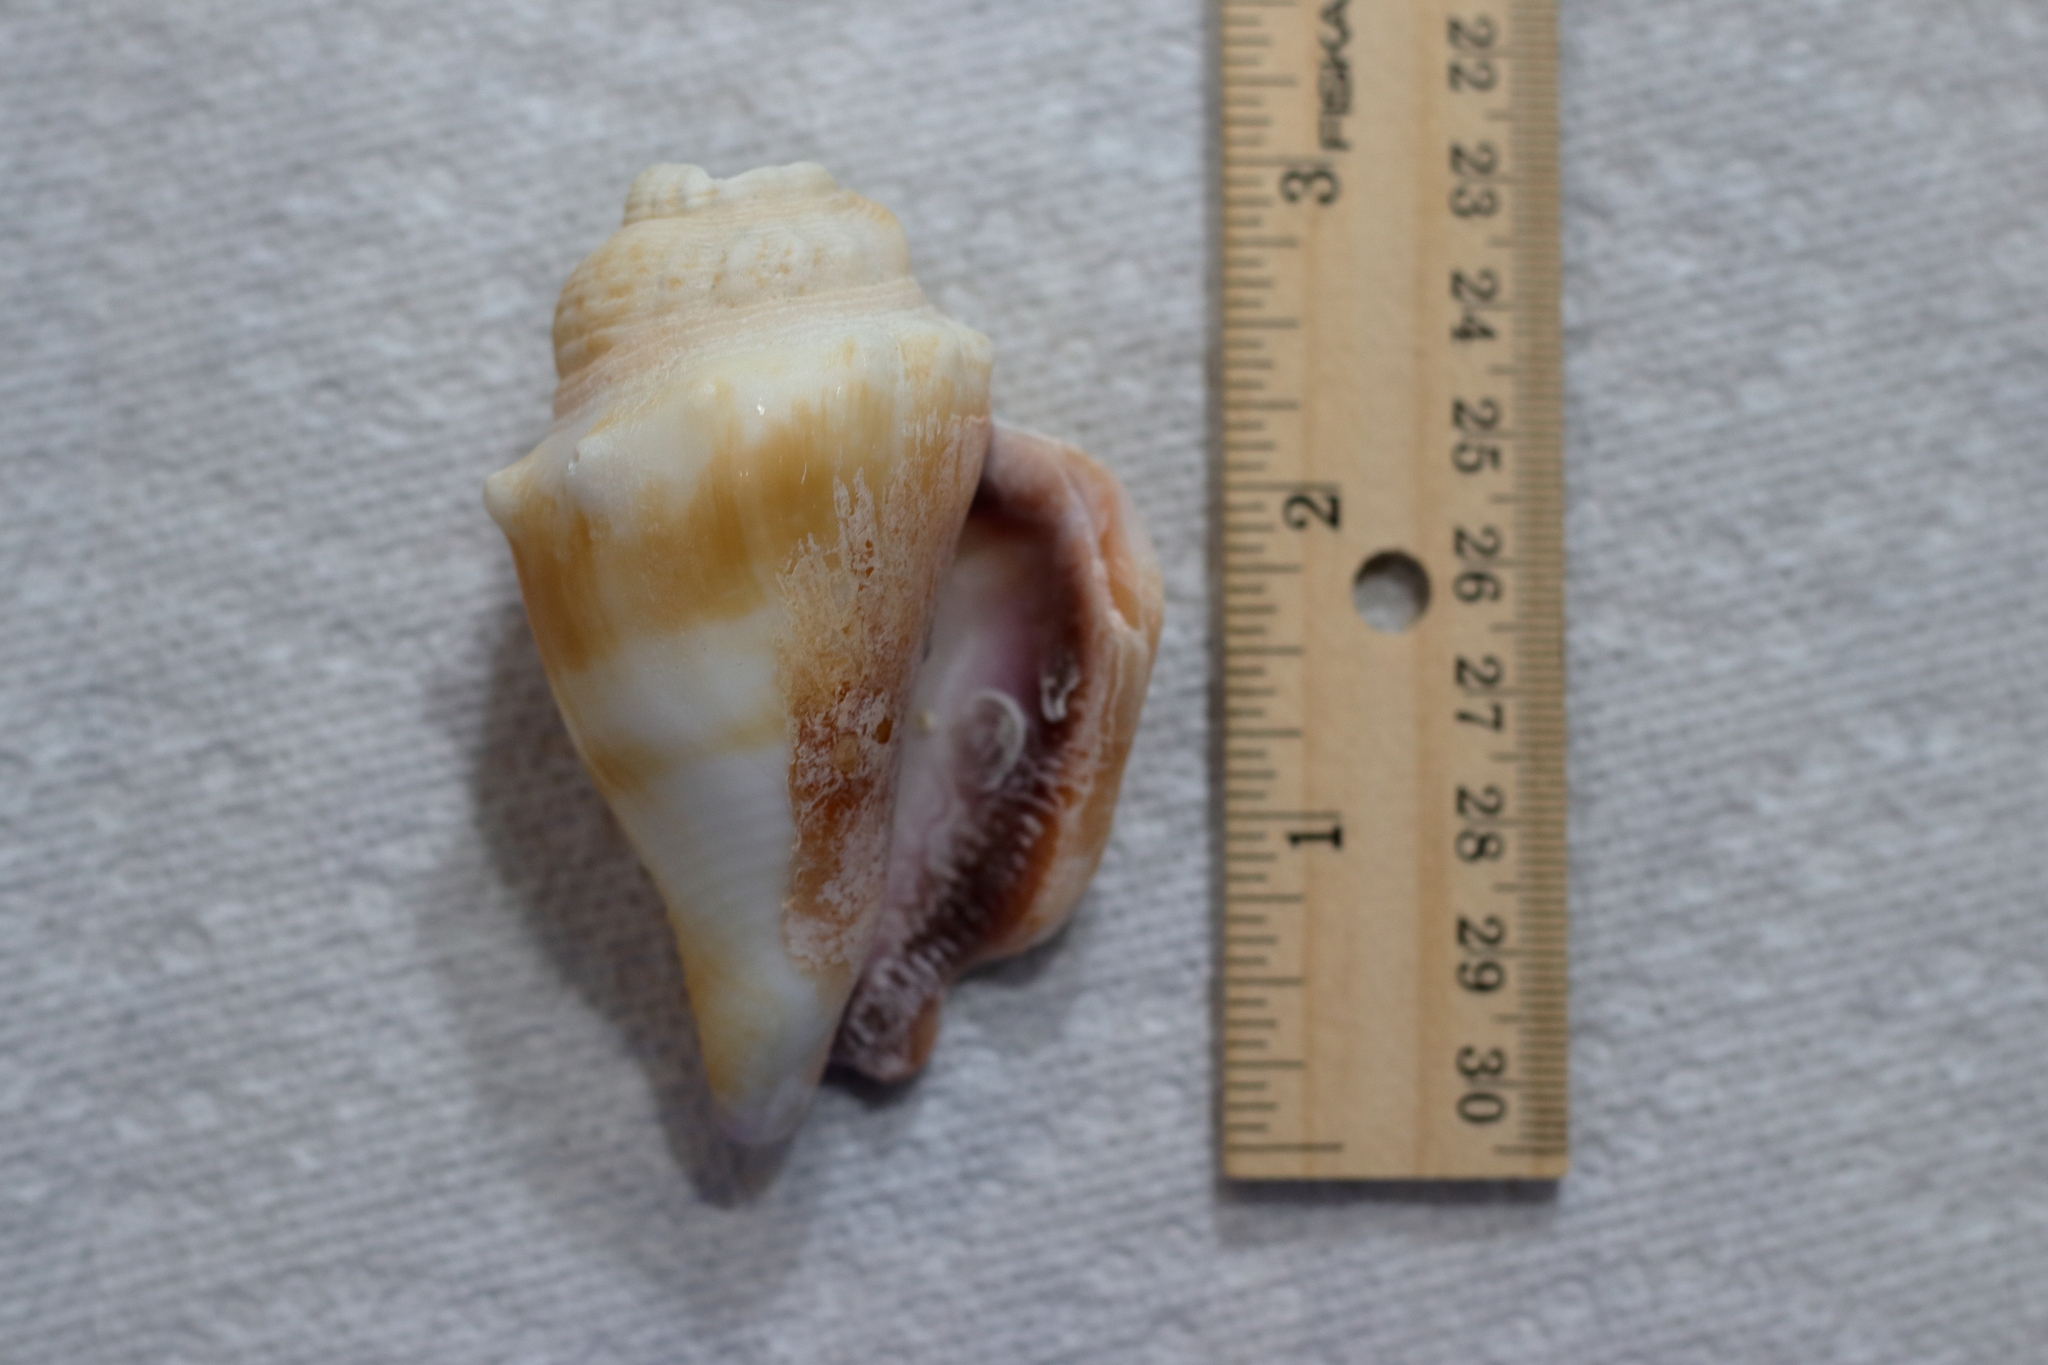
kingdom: Animalia
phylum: Mollusca
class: Gastropoda
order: Littorinimorpha
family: Strombidae
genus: Strombus
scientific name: Strombus alatus
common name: Florida fighting conch
